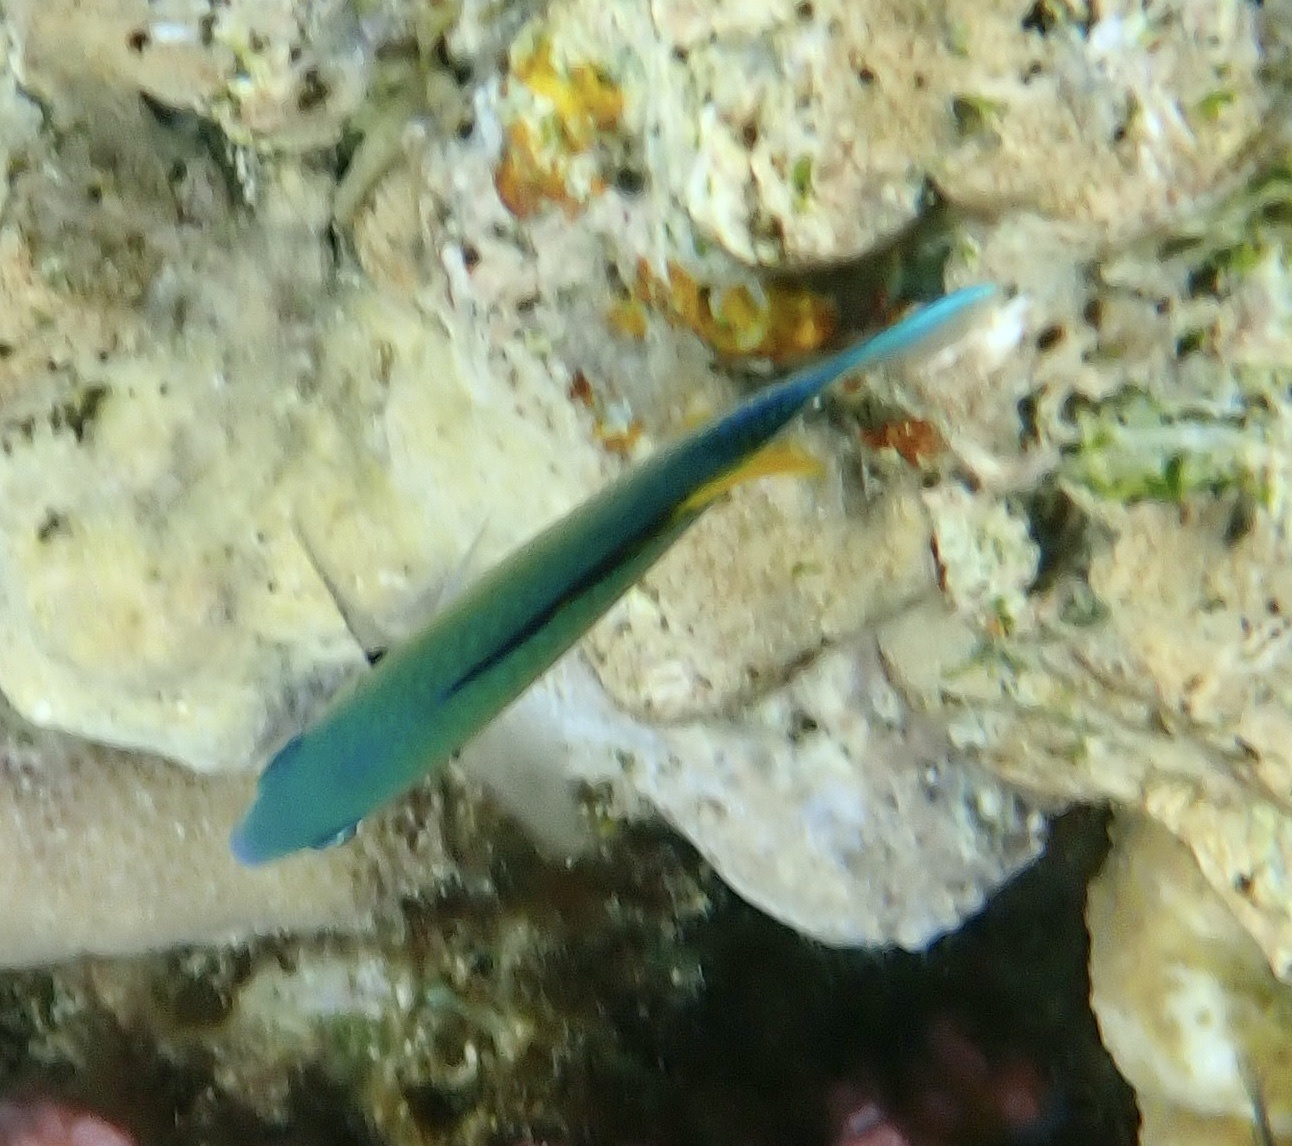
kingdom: Animalia
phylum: Chordata
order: Perciformes
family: Pomacentridae
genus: Chromis
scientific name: Chromis viridis
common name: Blue-green chromis
